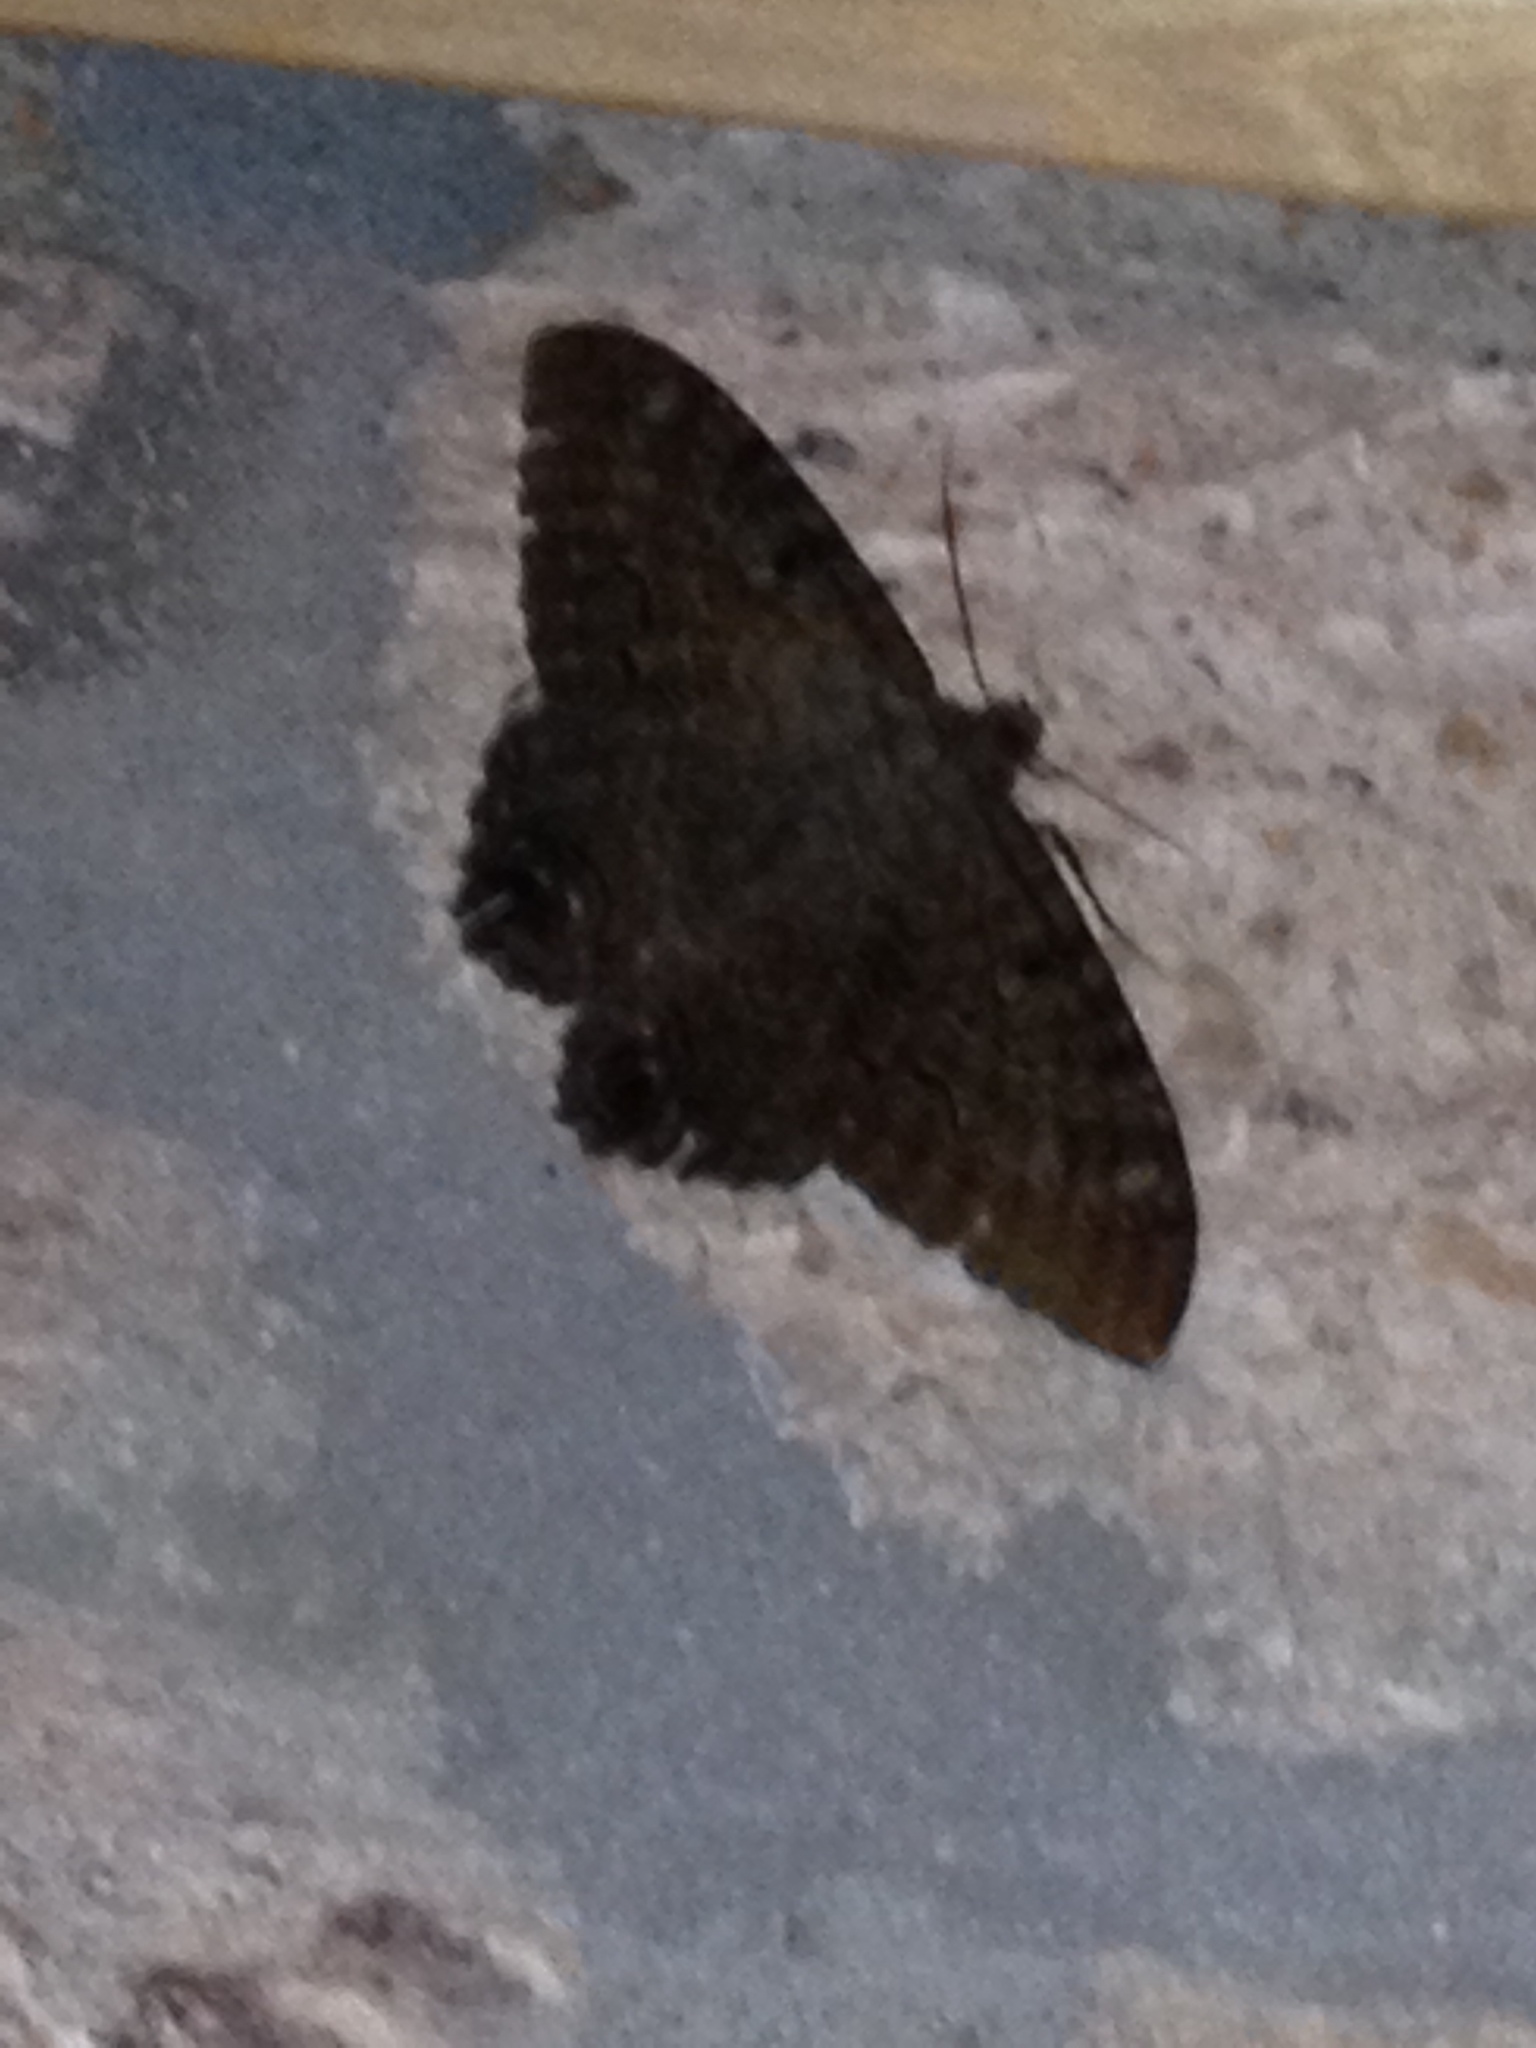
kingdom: Animalia
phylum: Arthropoda
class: Insecta
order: Lepidoptera
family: Erebidae
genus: Ascalapha
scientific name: Ascalapha odorata
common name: Black witch
